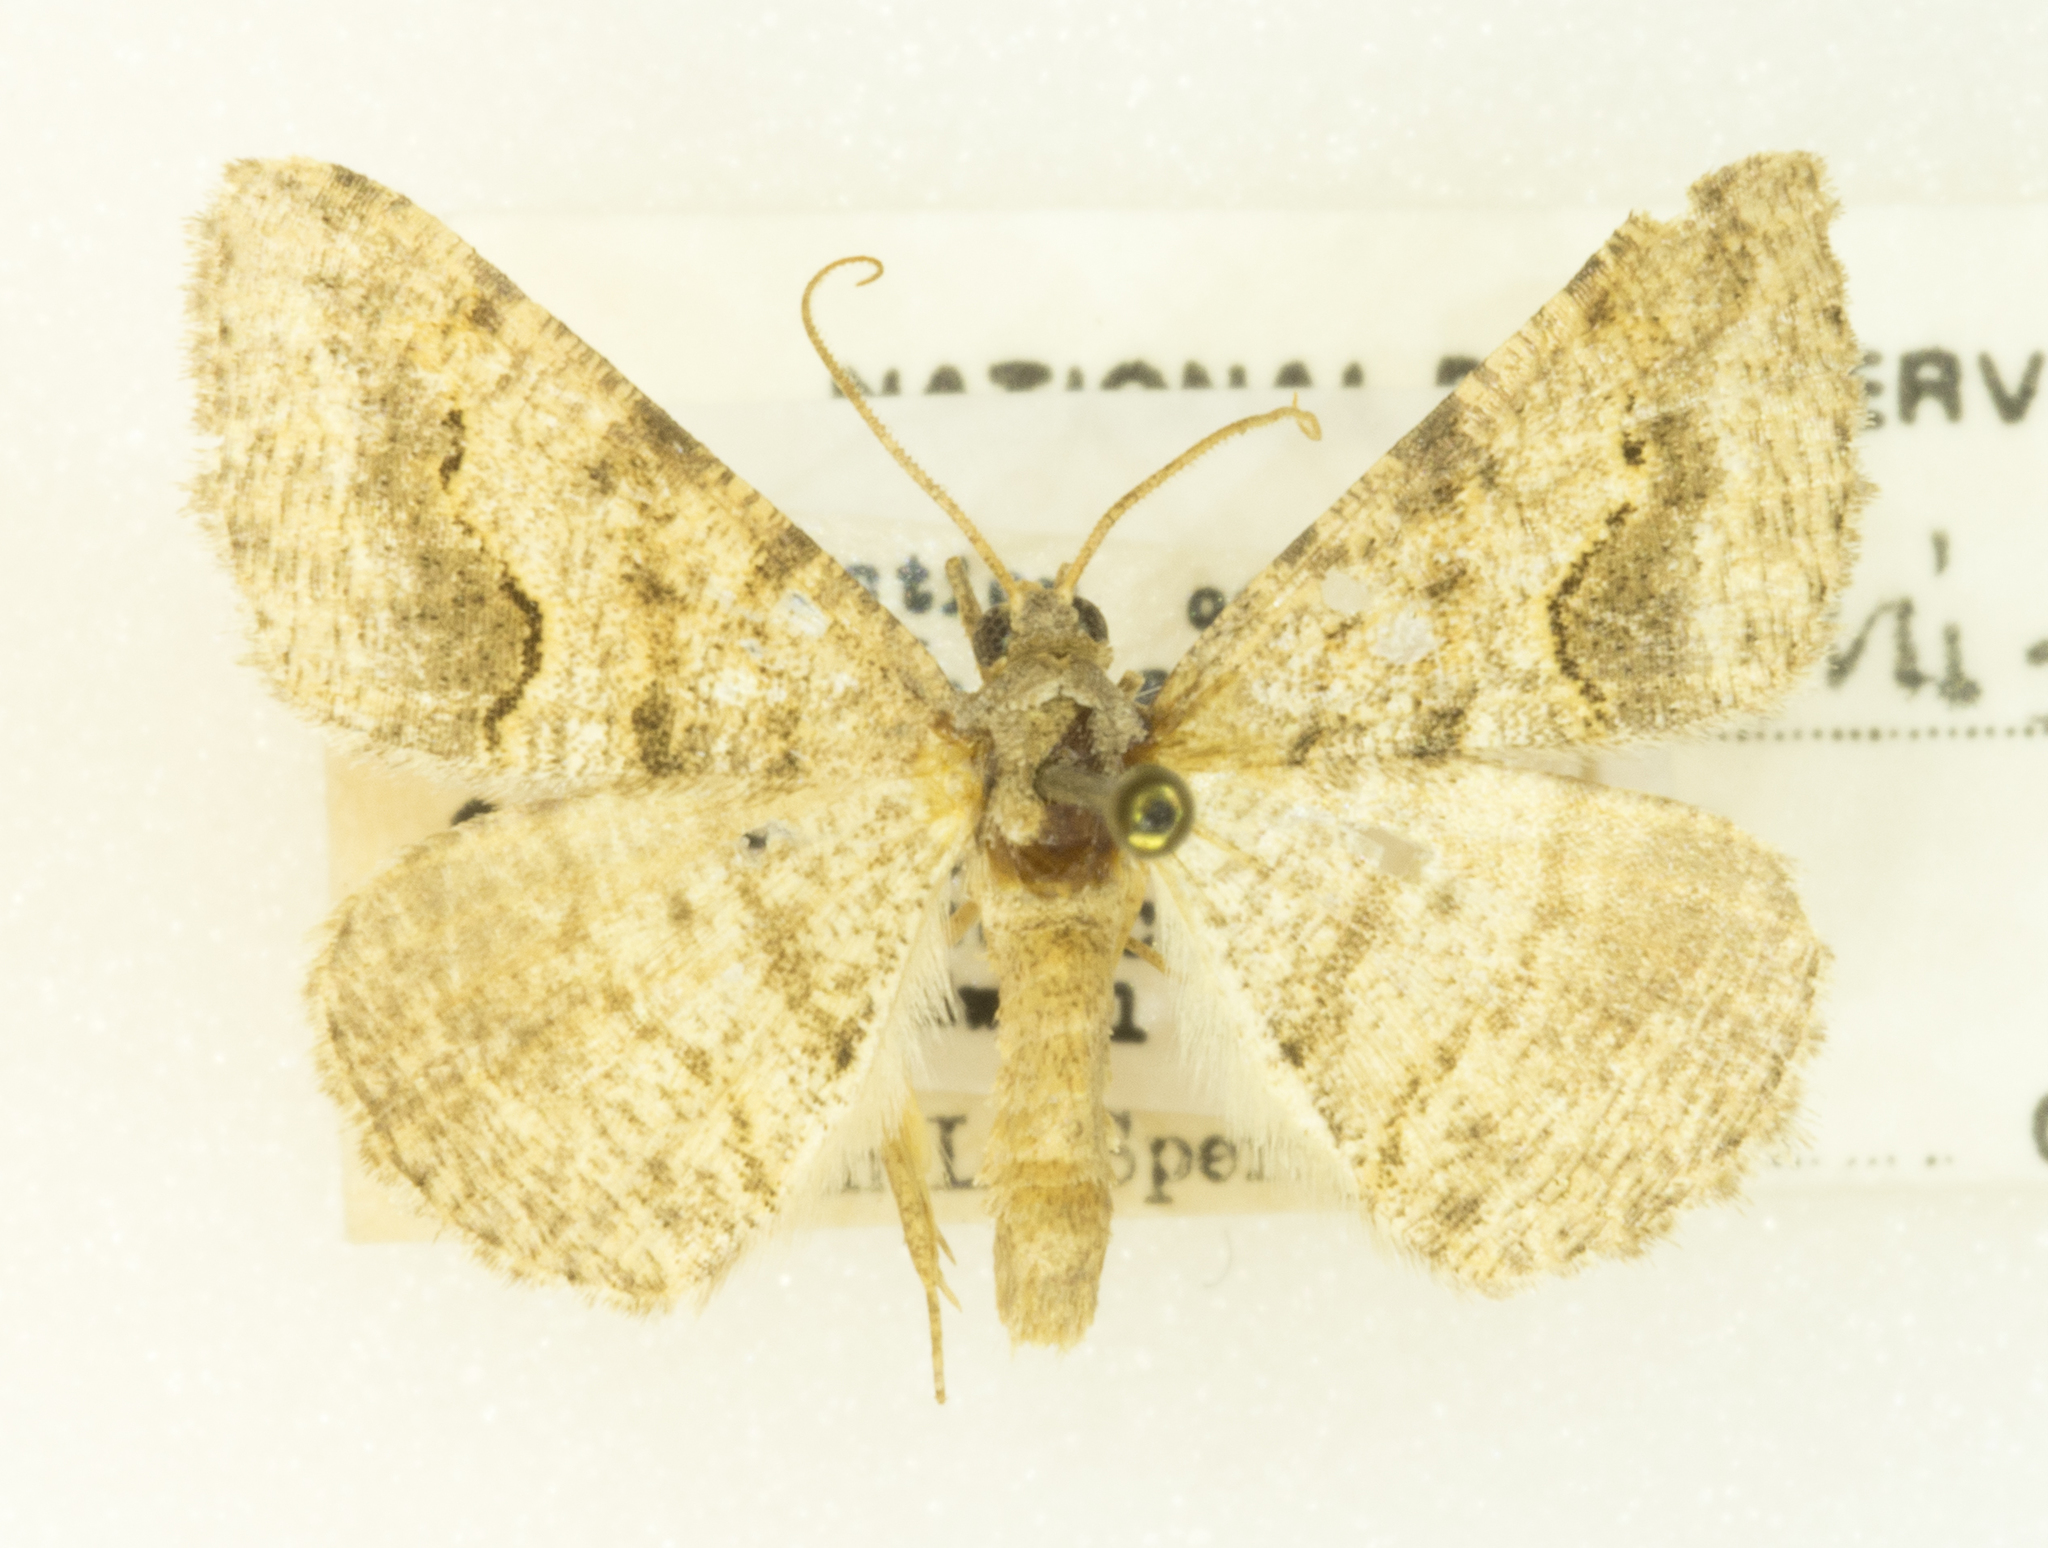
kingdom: Animalia
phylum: Arthropoda
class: Insecta
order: Lepidoptera
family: Geometridae
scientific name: Geometridae
